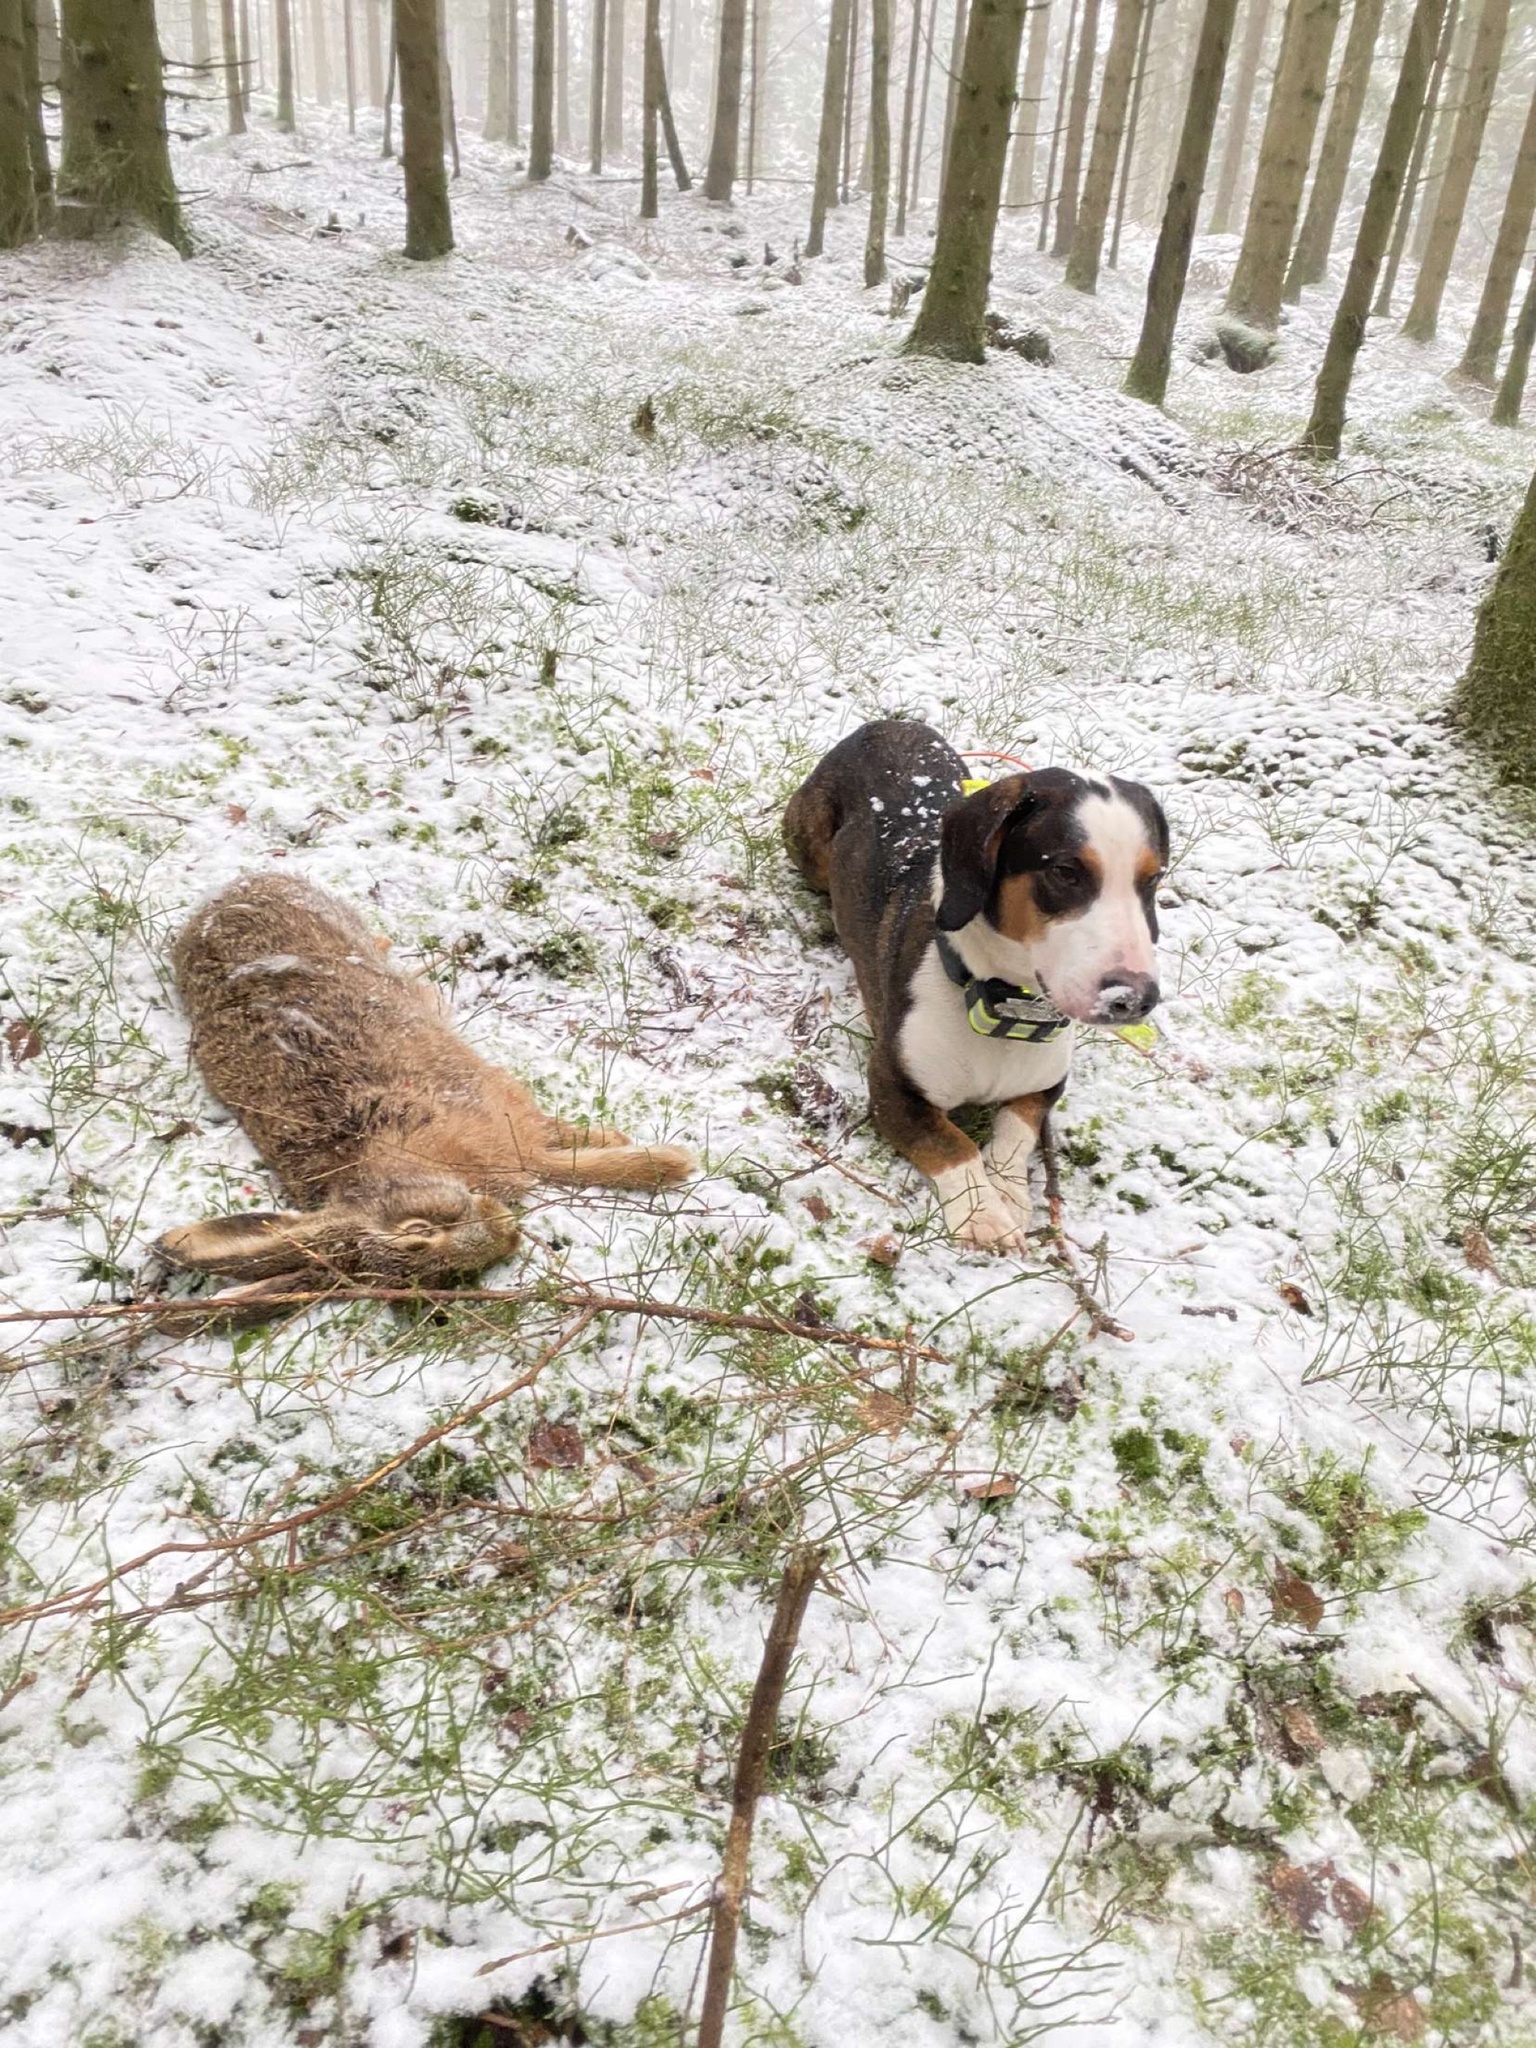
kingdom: Animalia
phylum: Chordata
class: Mammalia
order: Lagomorpha
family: Leporidae
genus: Lepus
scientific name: Lepus europaeus
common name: European hare
